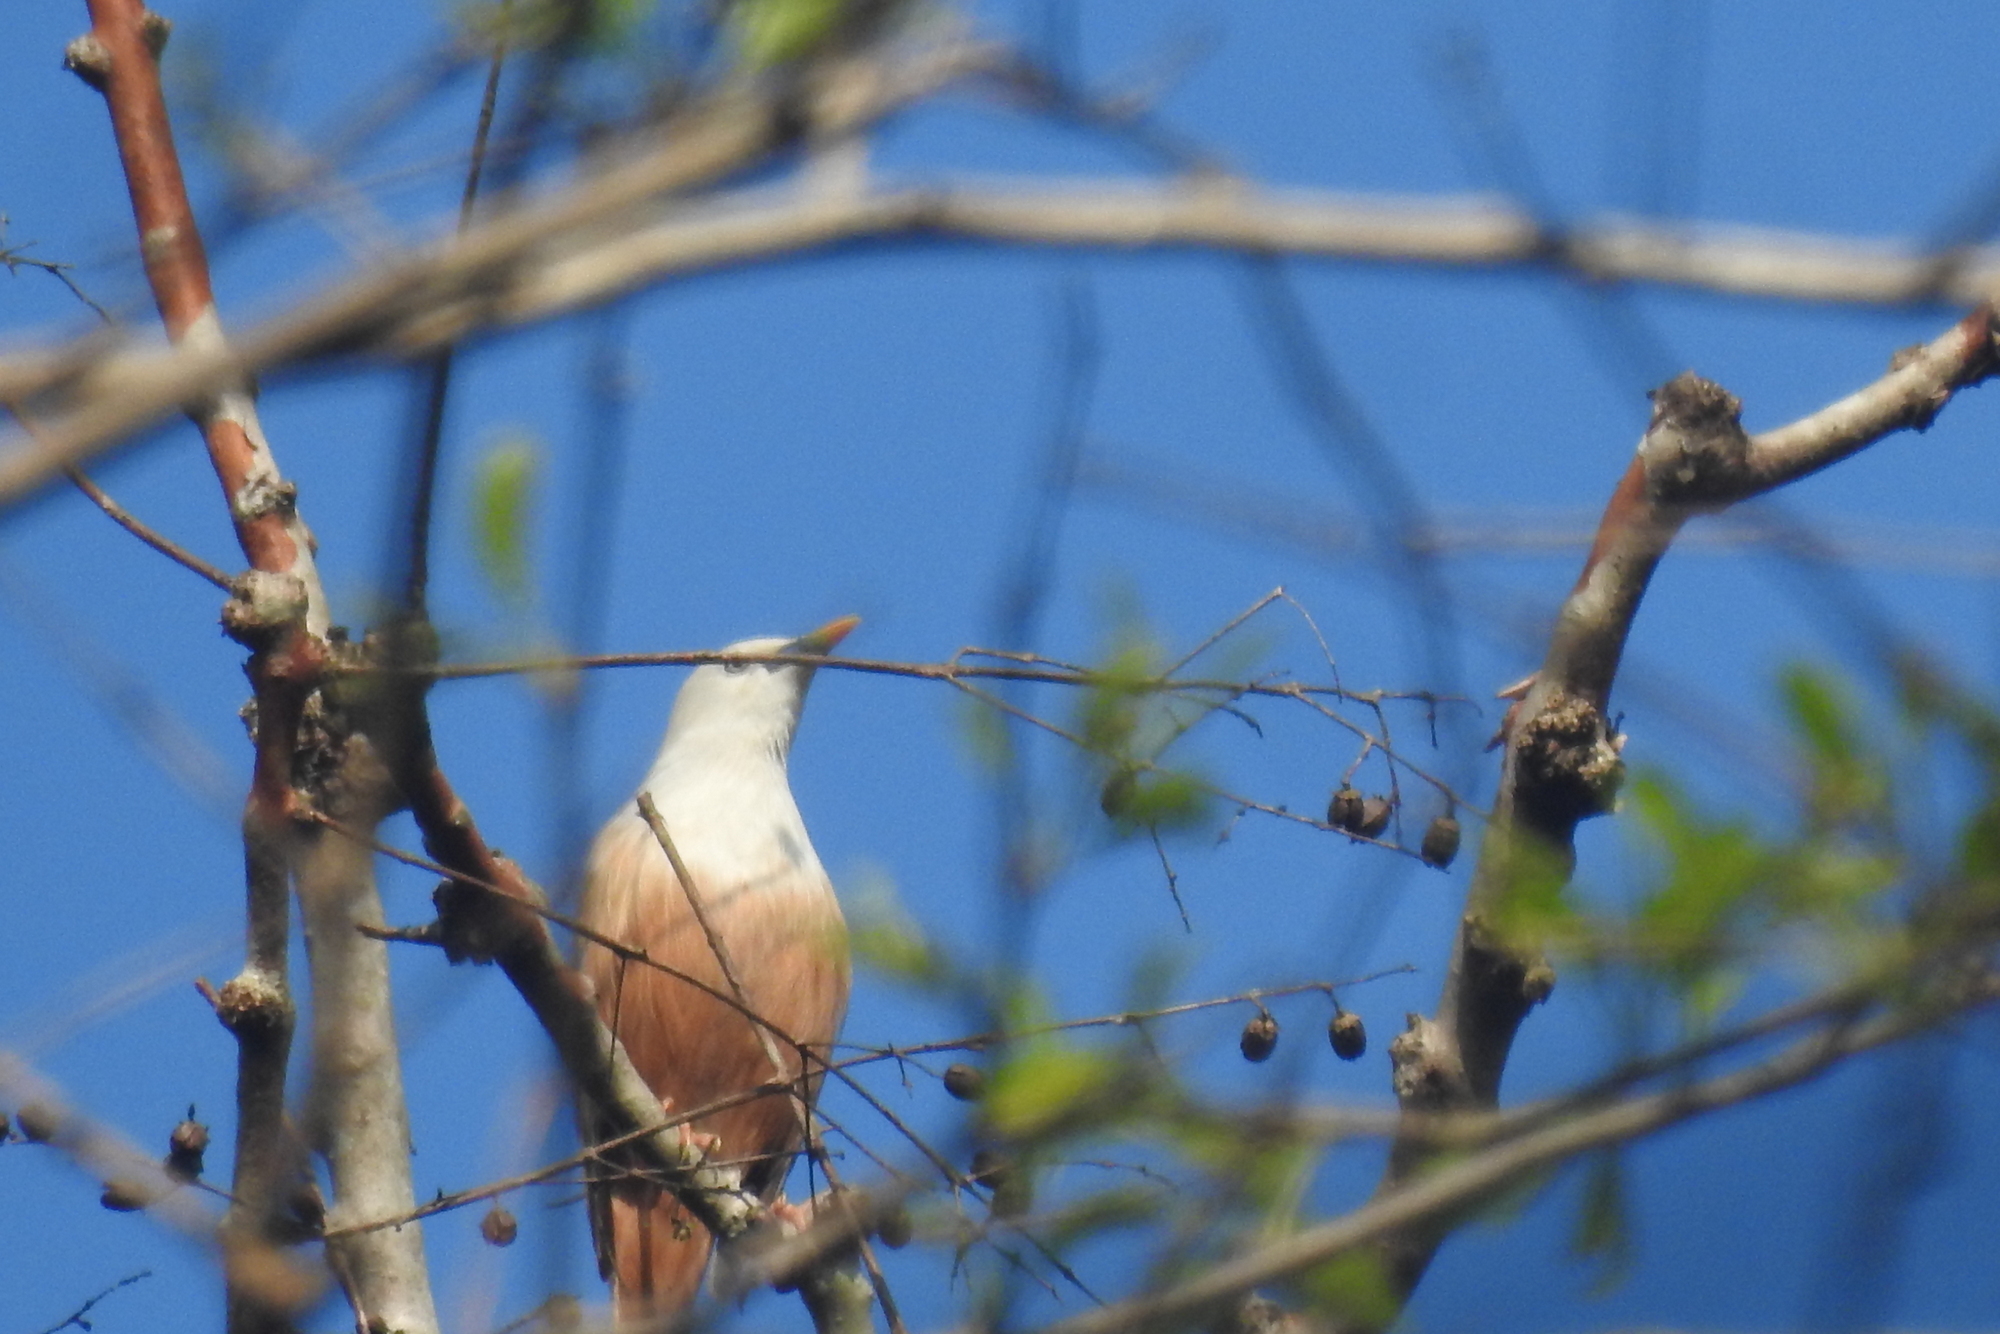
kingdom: Animalia
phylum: Chordata
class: Aves
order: Passeriformes
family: Sturnidae
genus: Sturnia
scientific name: Sturnia blythii
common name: Malabar starling
